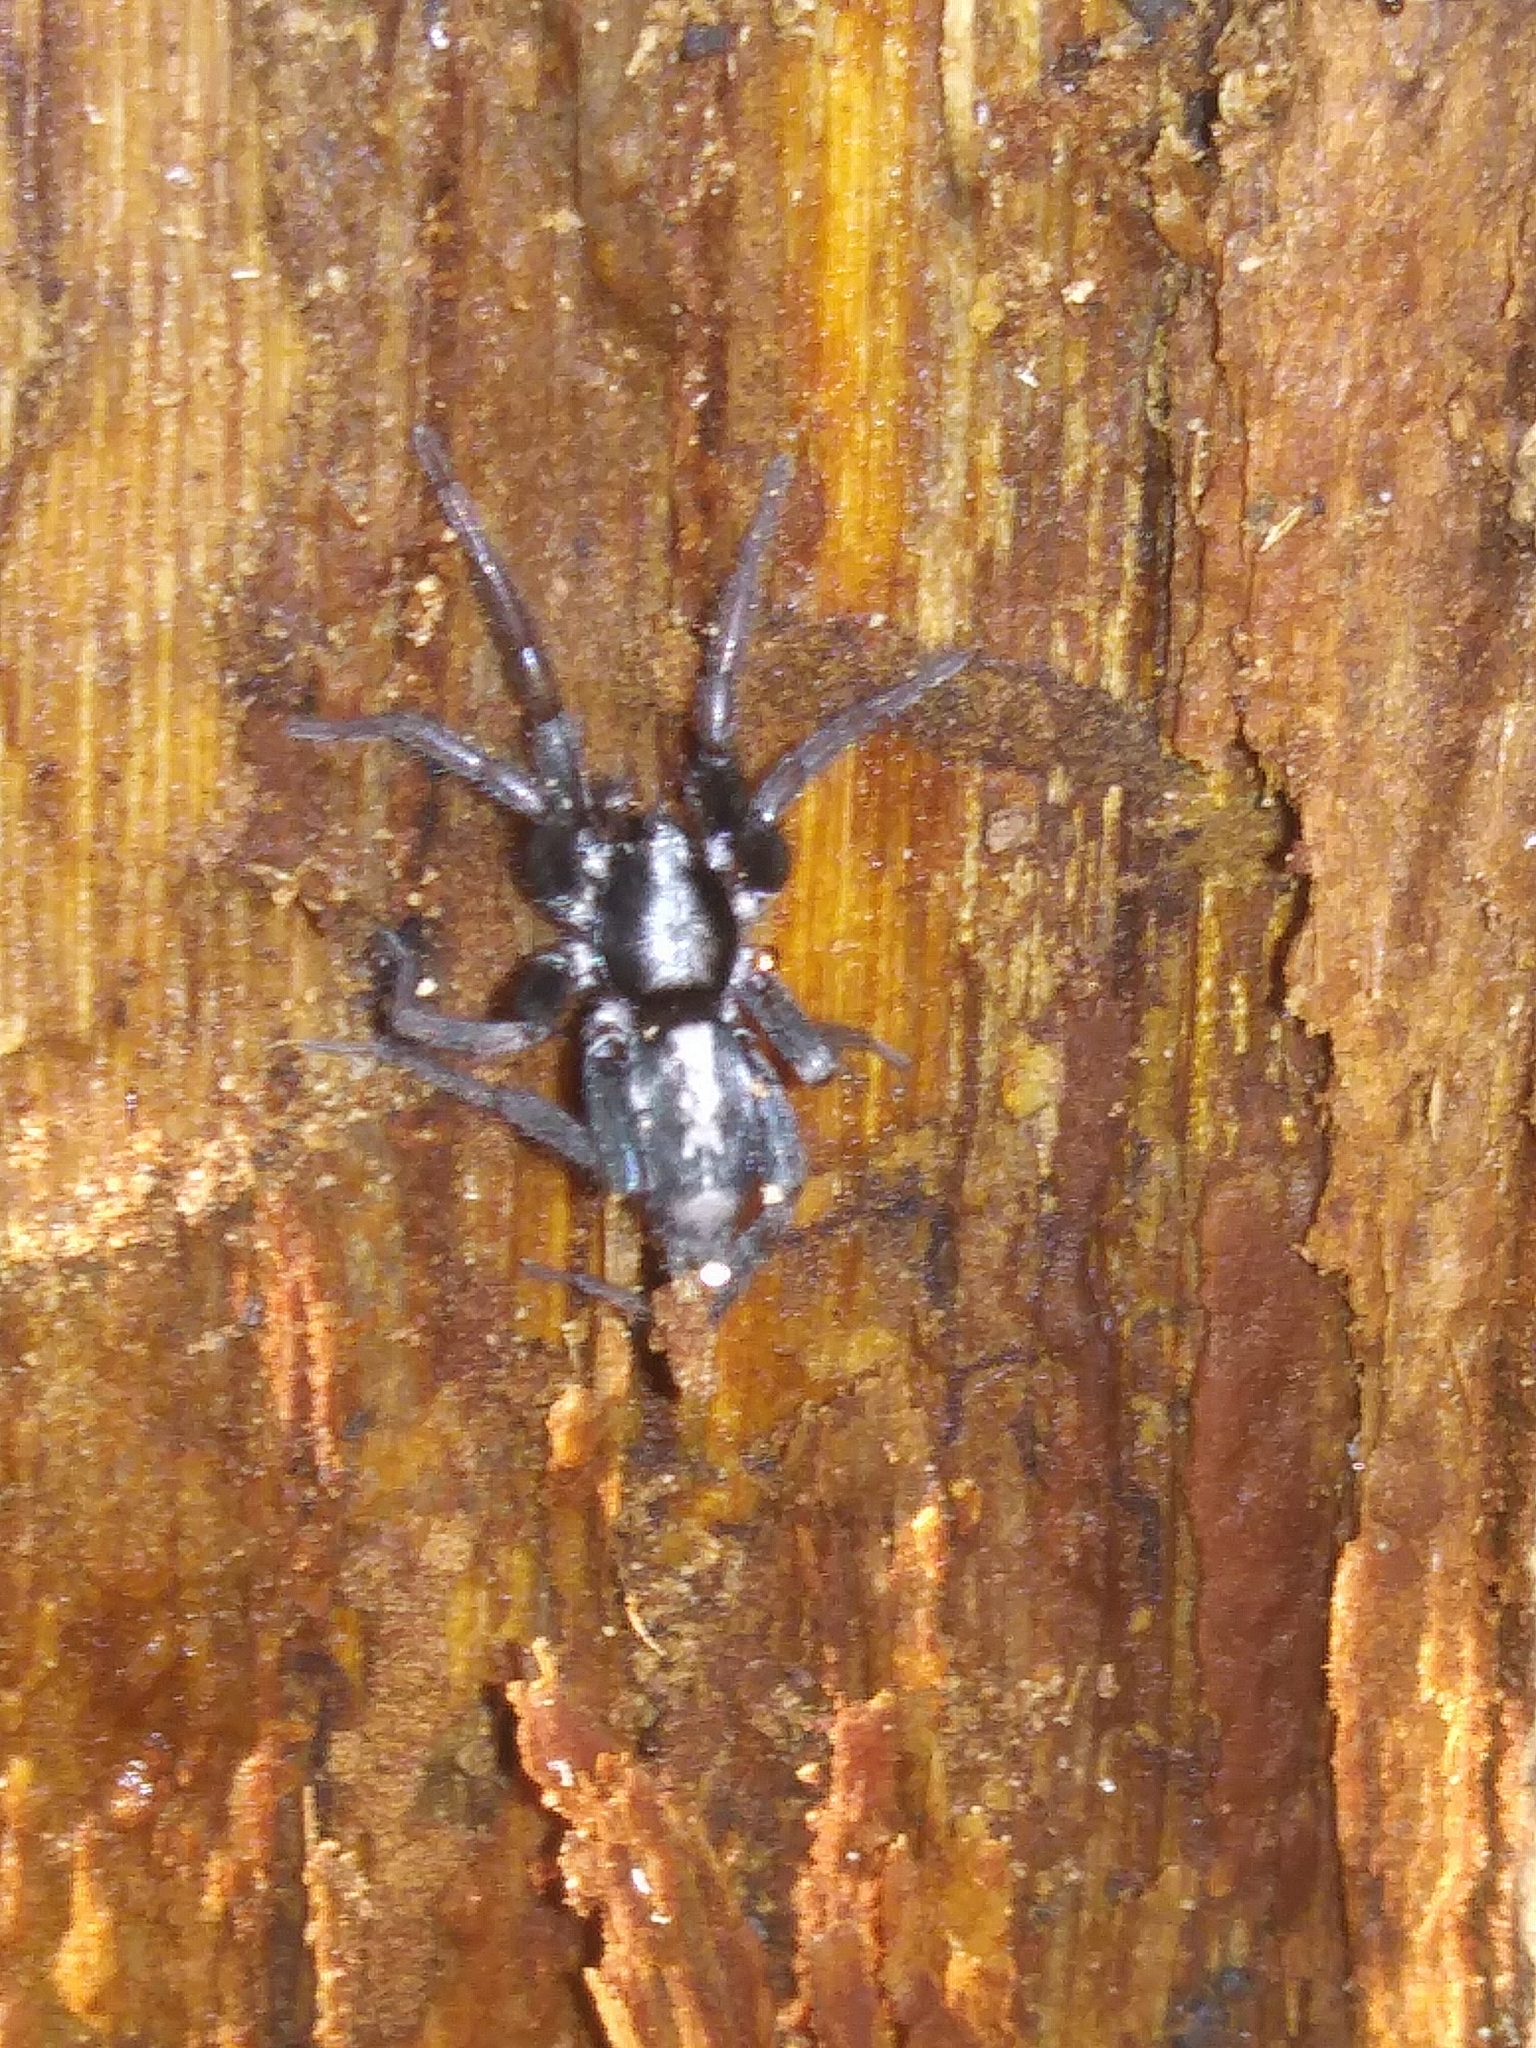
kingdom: Animalia
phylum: Arthropoda
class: Arachnida
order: Araneae
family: Gnaphosidae
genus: Herpyllus
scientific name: Herpyllus ecclesiasticus
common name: Eastern parson spider
